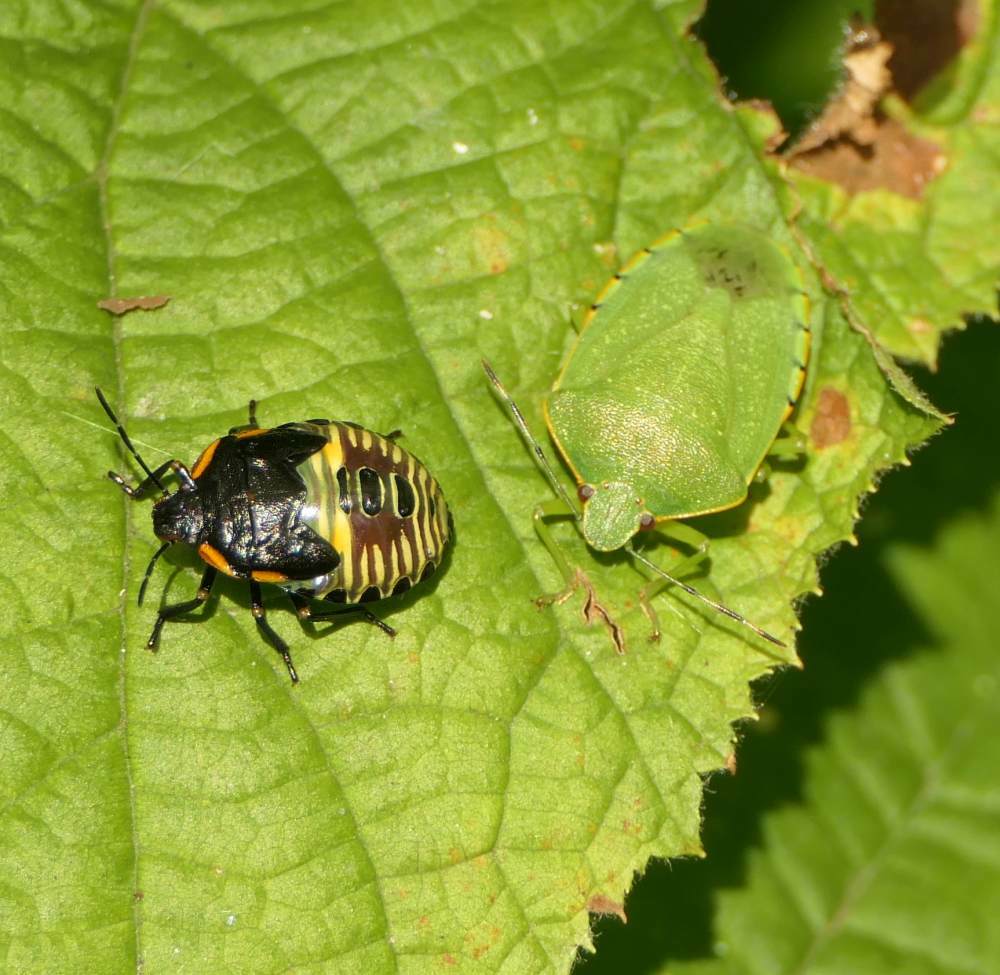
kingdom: Animalia
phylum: Arthropoda
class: Insecta
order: Hemiptera
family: Pentatomidae
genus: Chinavia
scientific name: Chinavia hilaris
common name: Green stink bug
